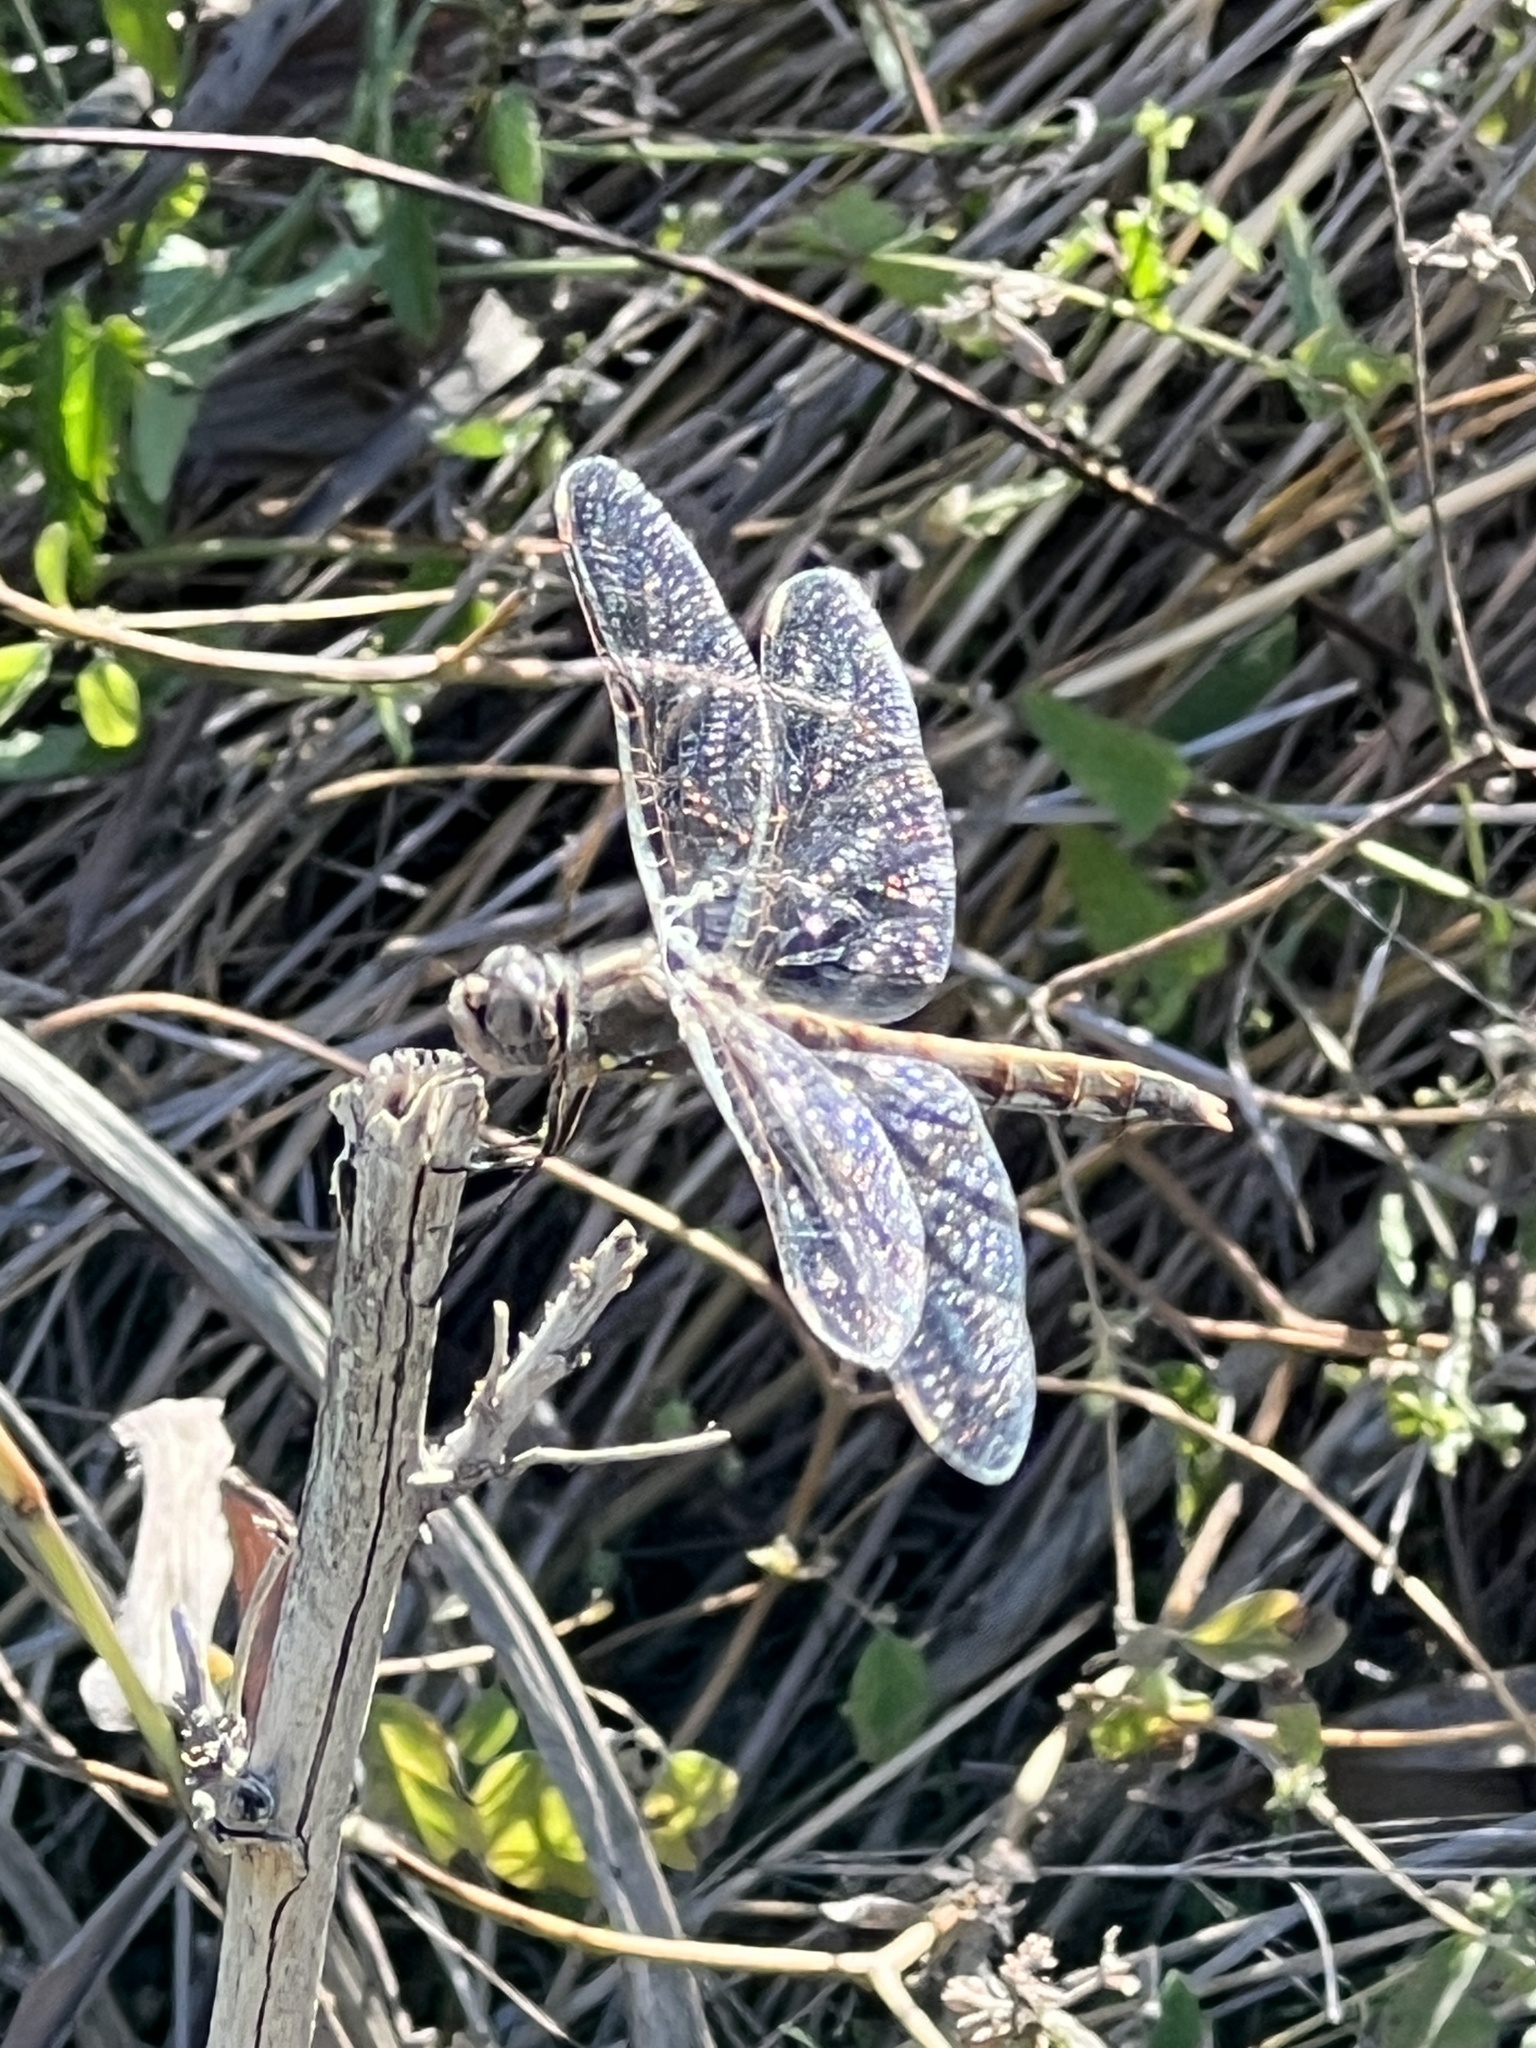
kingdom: Animalia
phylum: Arthropoda
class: Insecta
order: Odonata
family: Libellulidae
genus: Sympetrum
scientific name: Sympetrum corruptum
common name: Variegated meadowhawk
